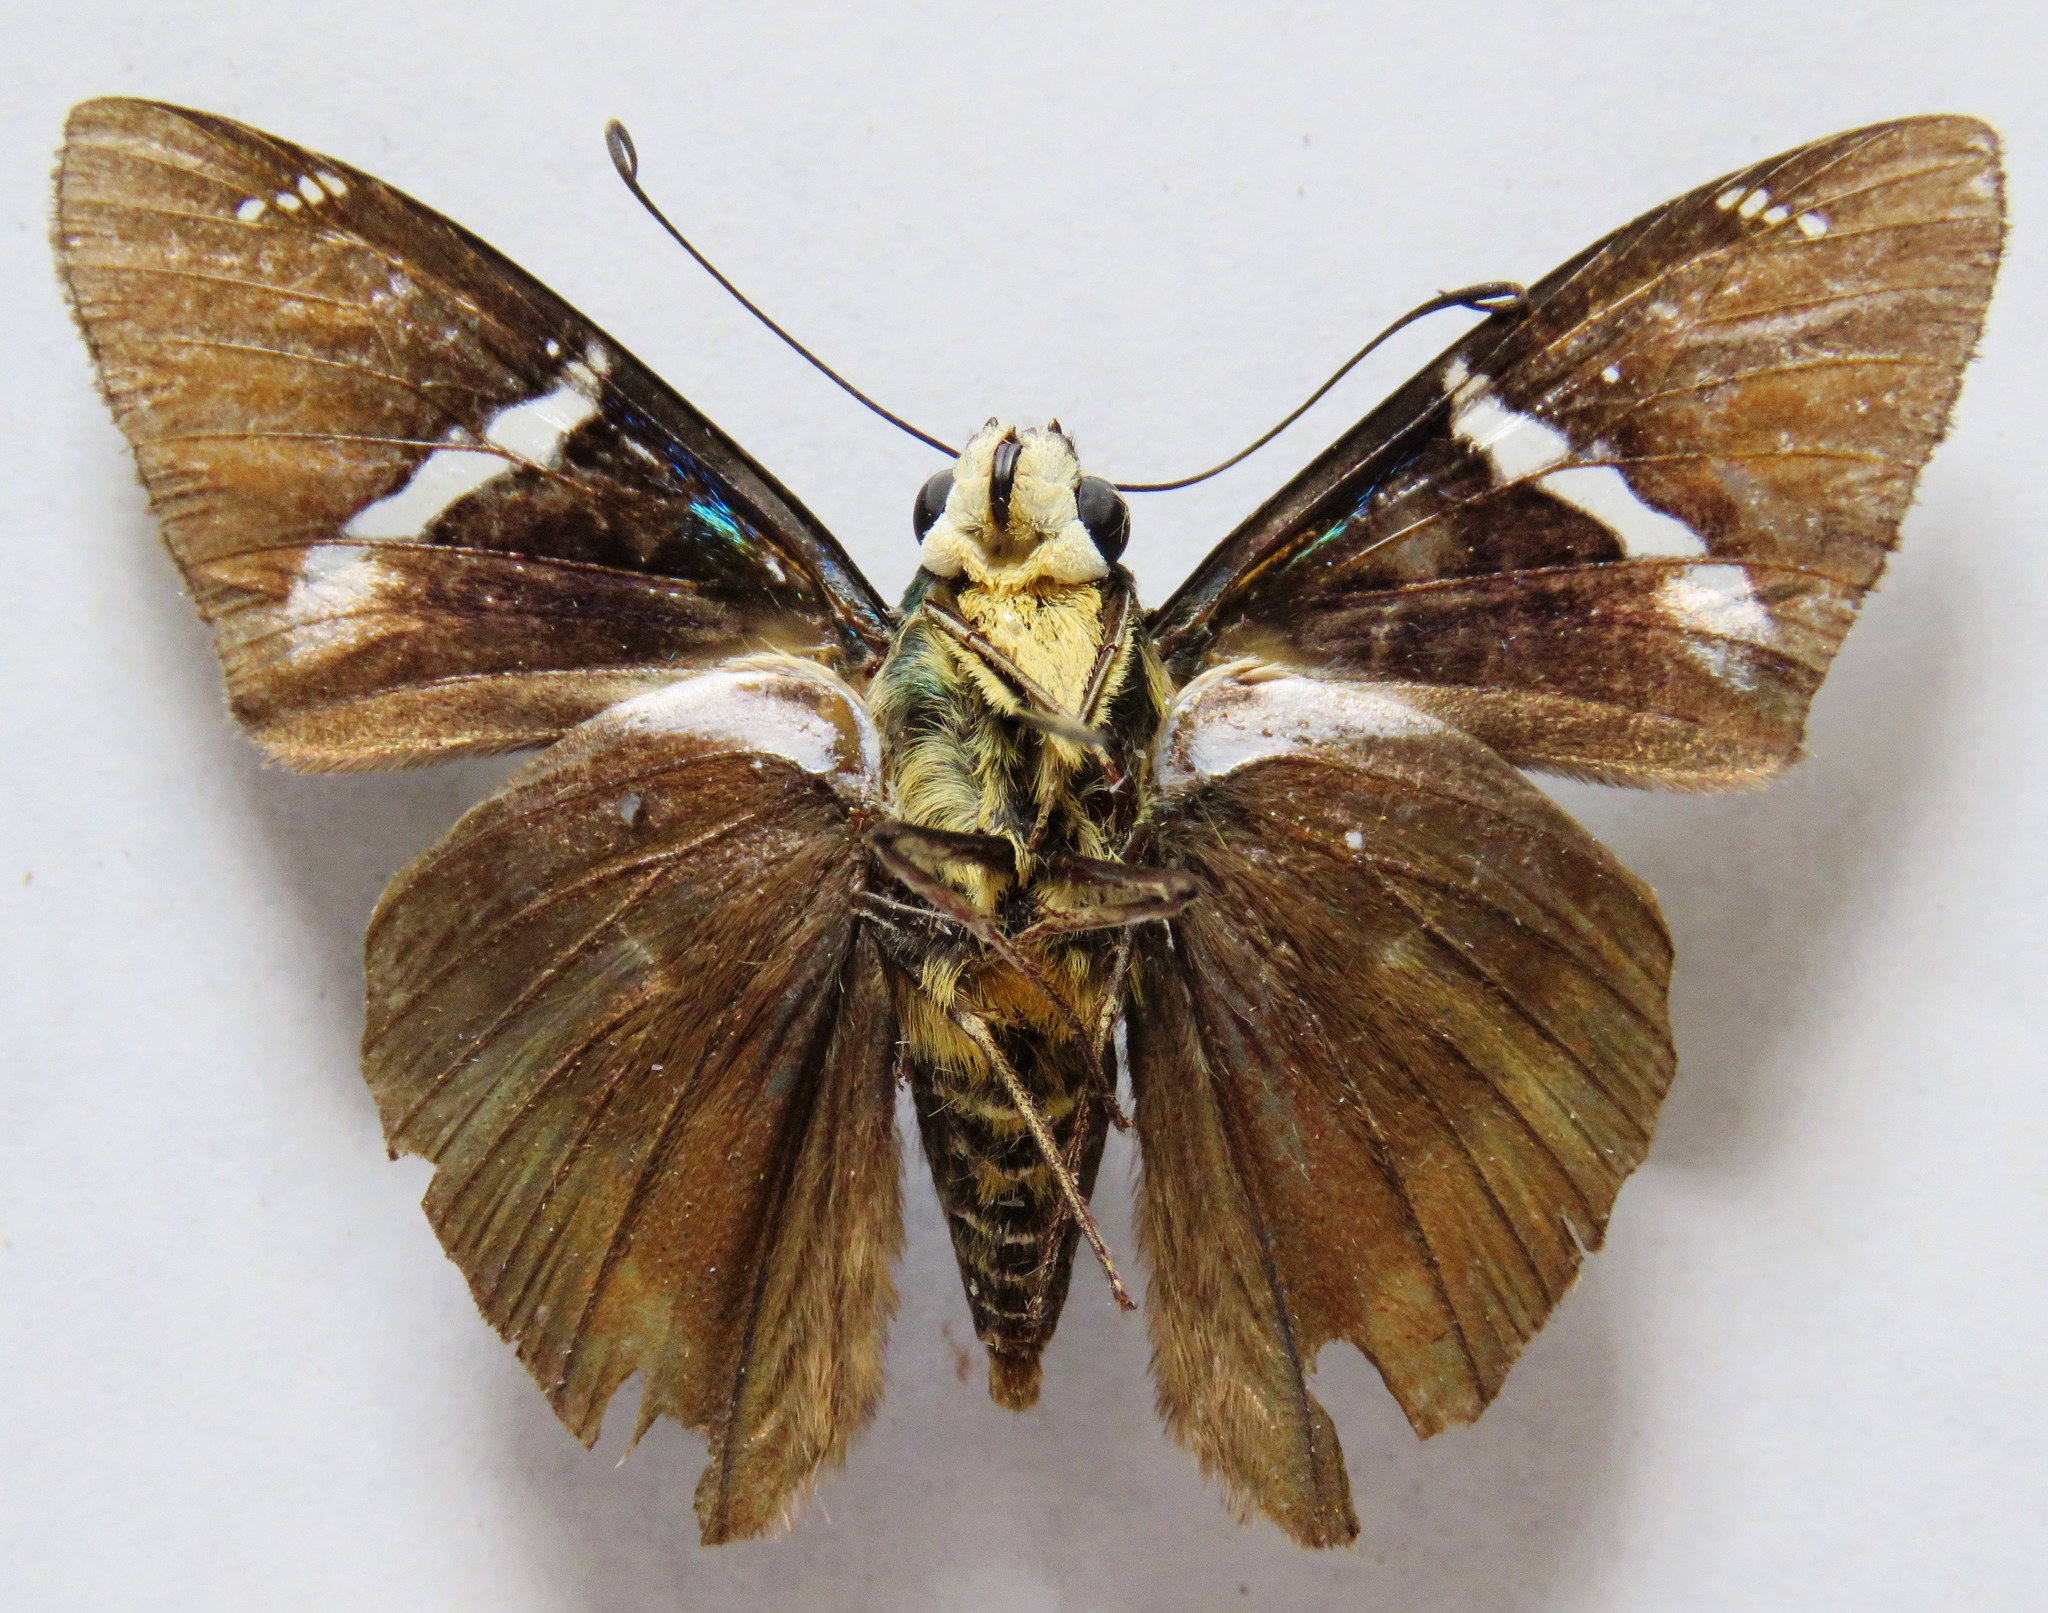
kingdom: Animalia
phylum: Arthropoda
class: Arachnida
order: Scorpiones
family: Bothriuridae
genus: Telegonus
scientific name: Telegonus
